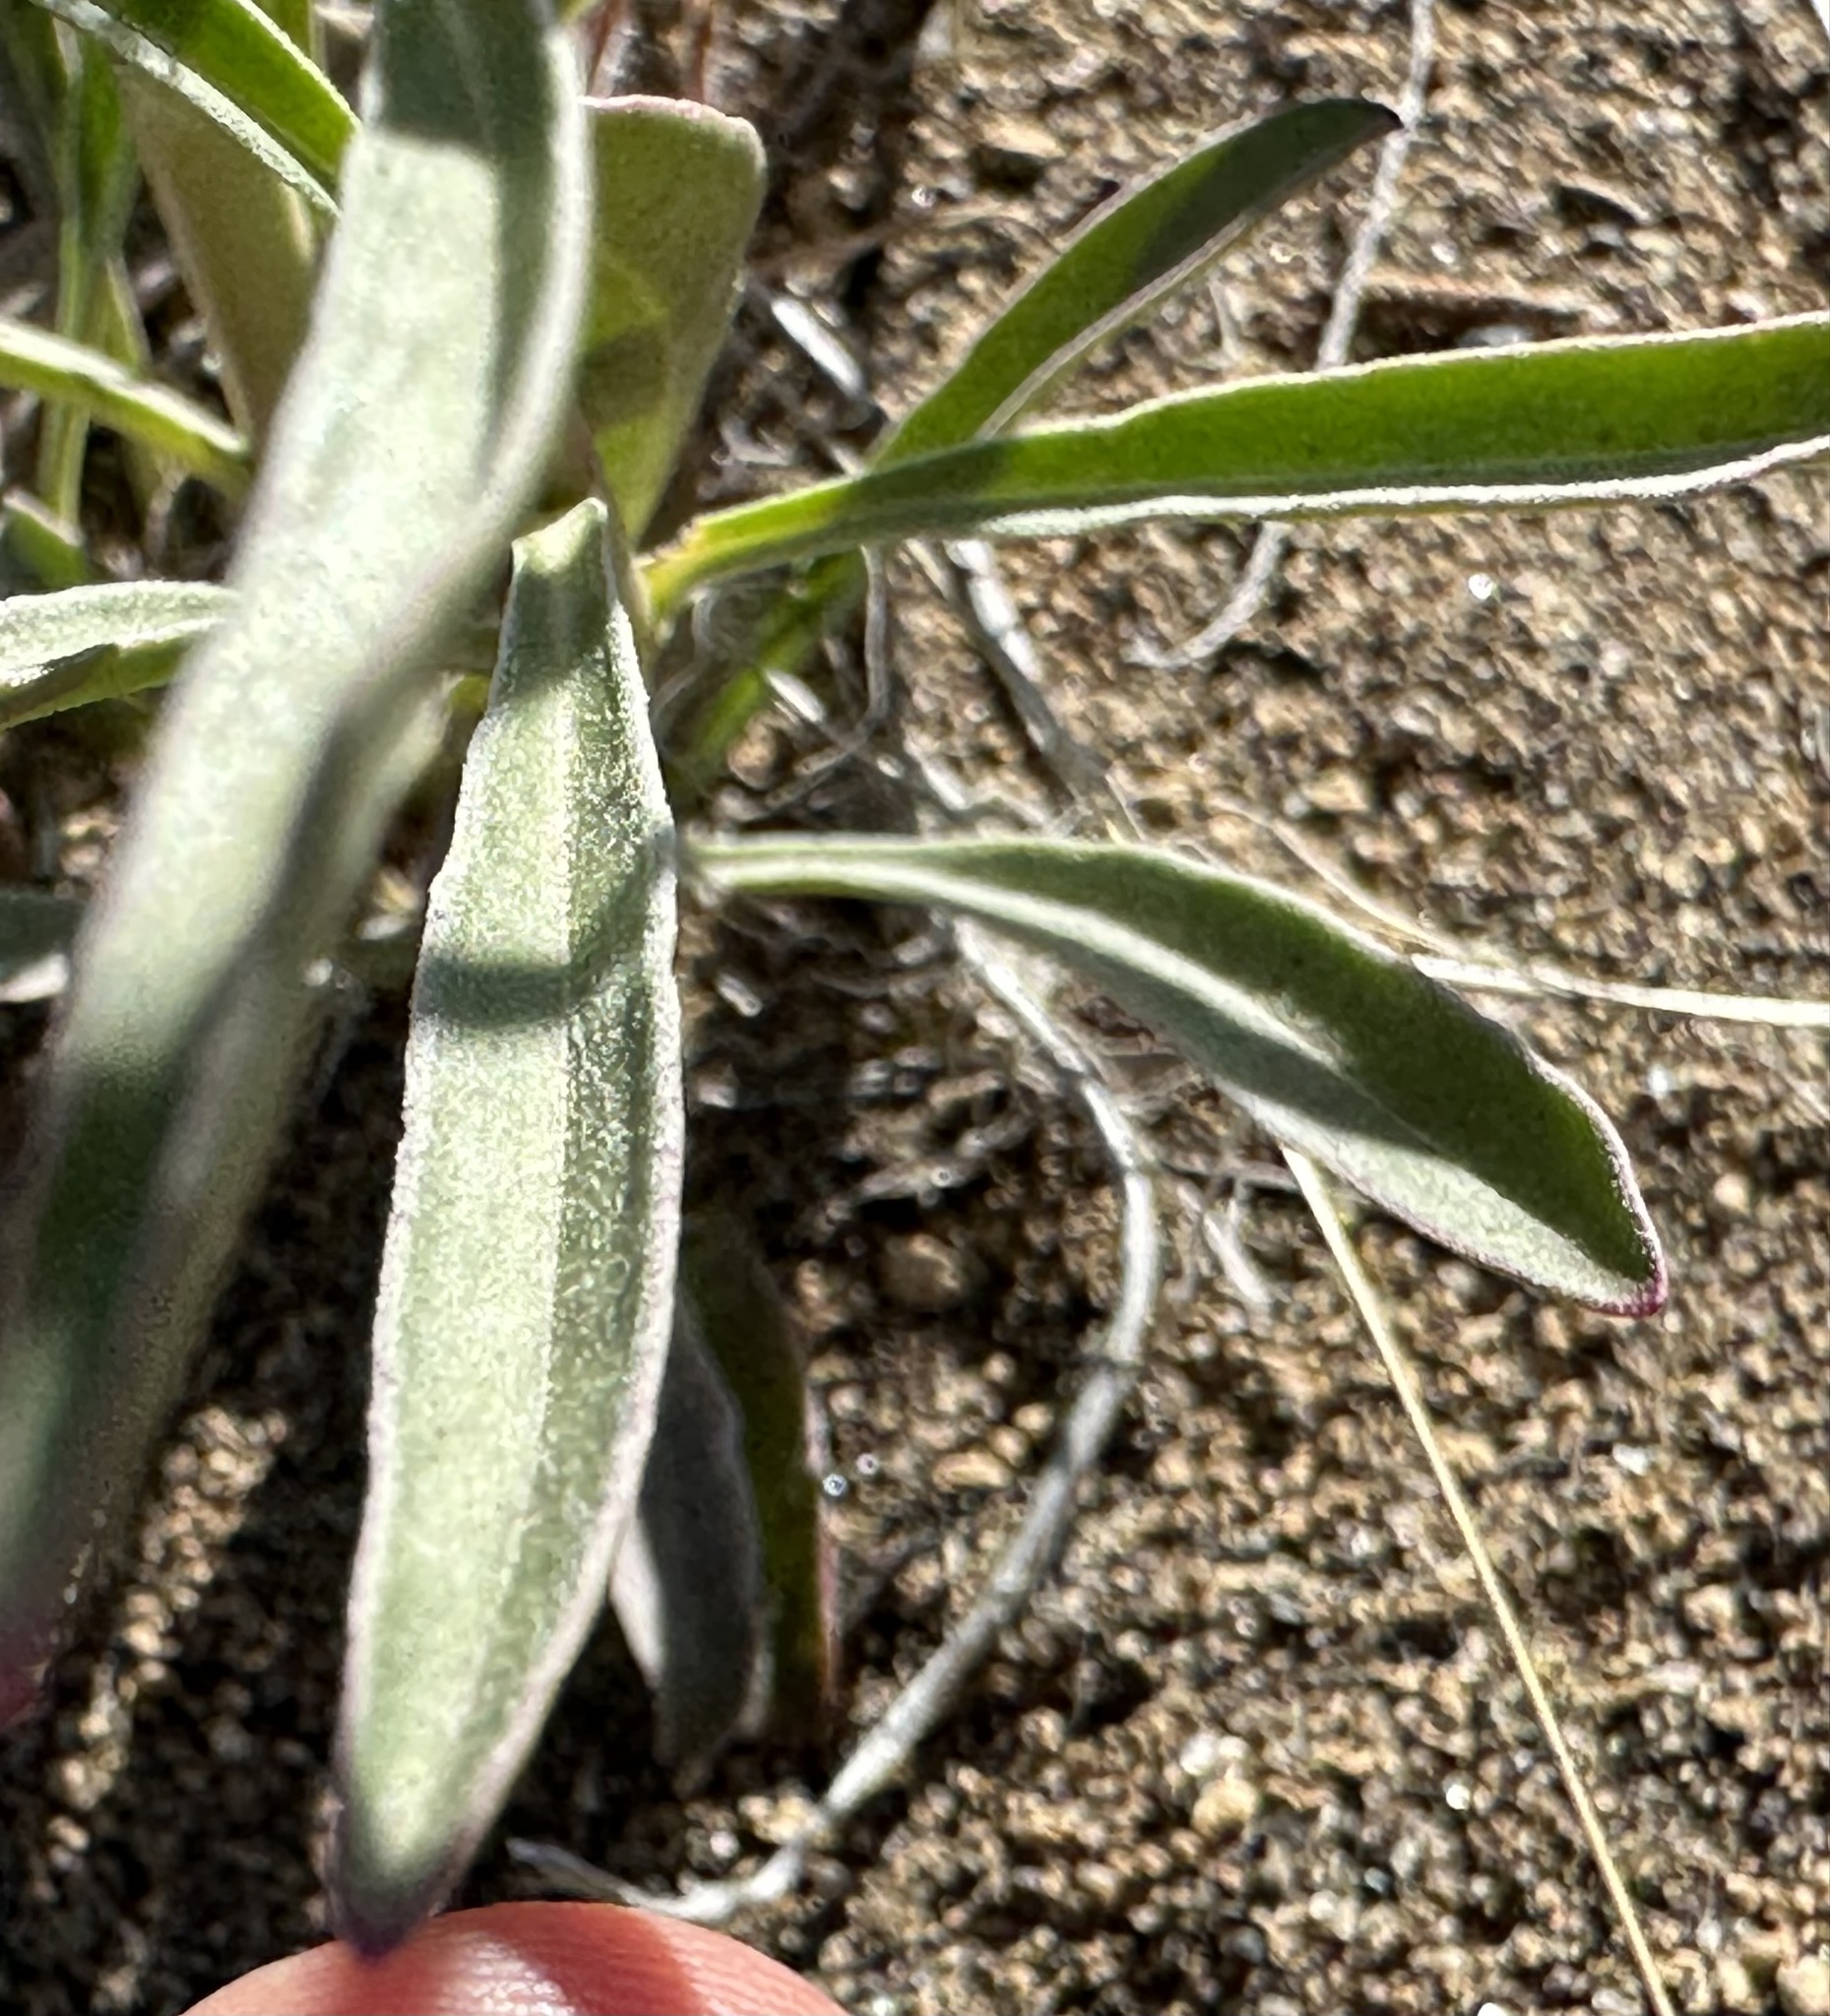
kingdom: Plantae
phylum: Tracheophyta
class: Magnoliopsida
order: Lamiales
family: Plantaginaceae
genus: Penstemon
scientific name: Penstemon speciosus
